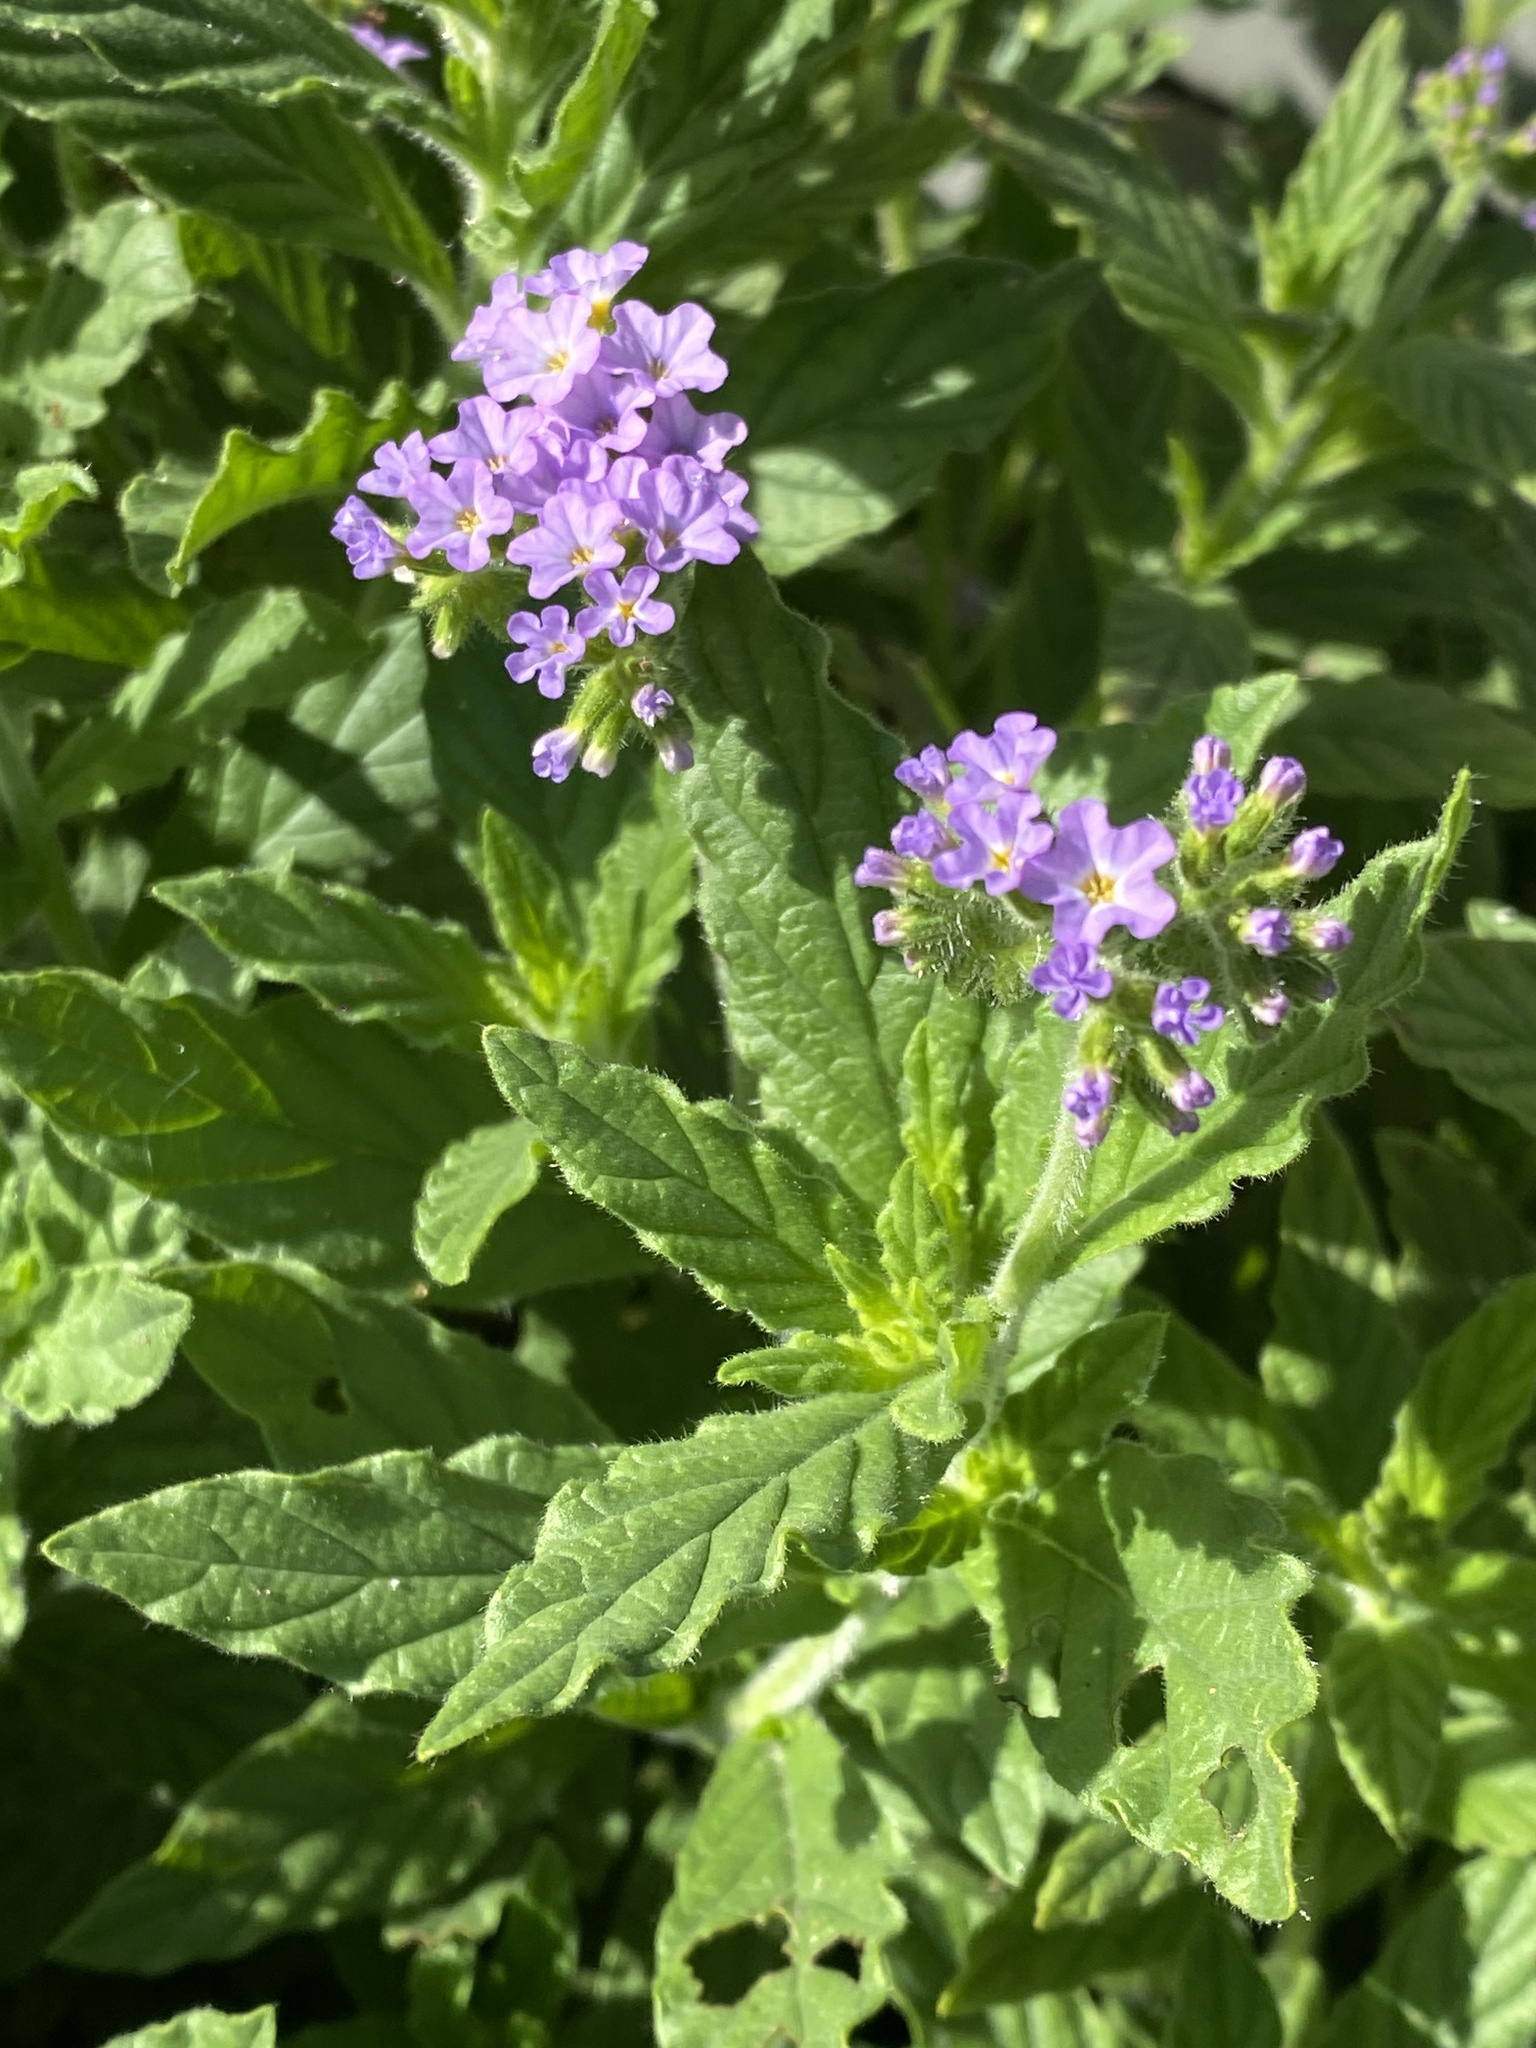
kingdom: Plantae
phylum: Tracheophyta
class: Magnoliopsida
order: Boraginales
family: Heliotropiaceae
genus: Heliotropium
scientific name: Heliotropium amplexicaule
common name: Clasping heliotrope
